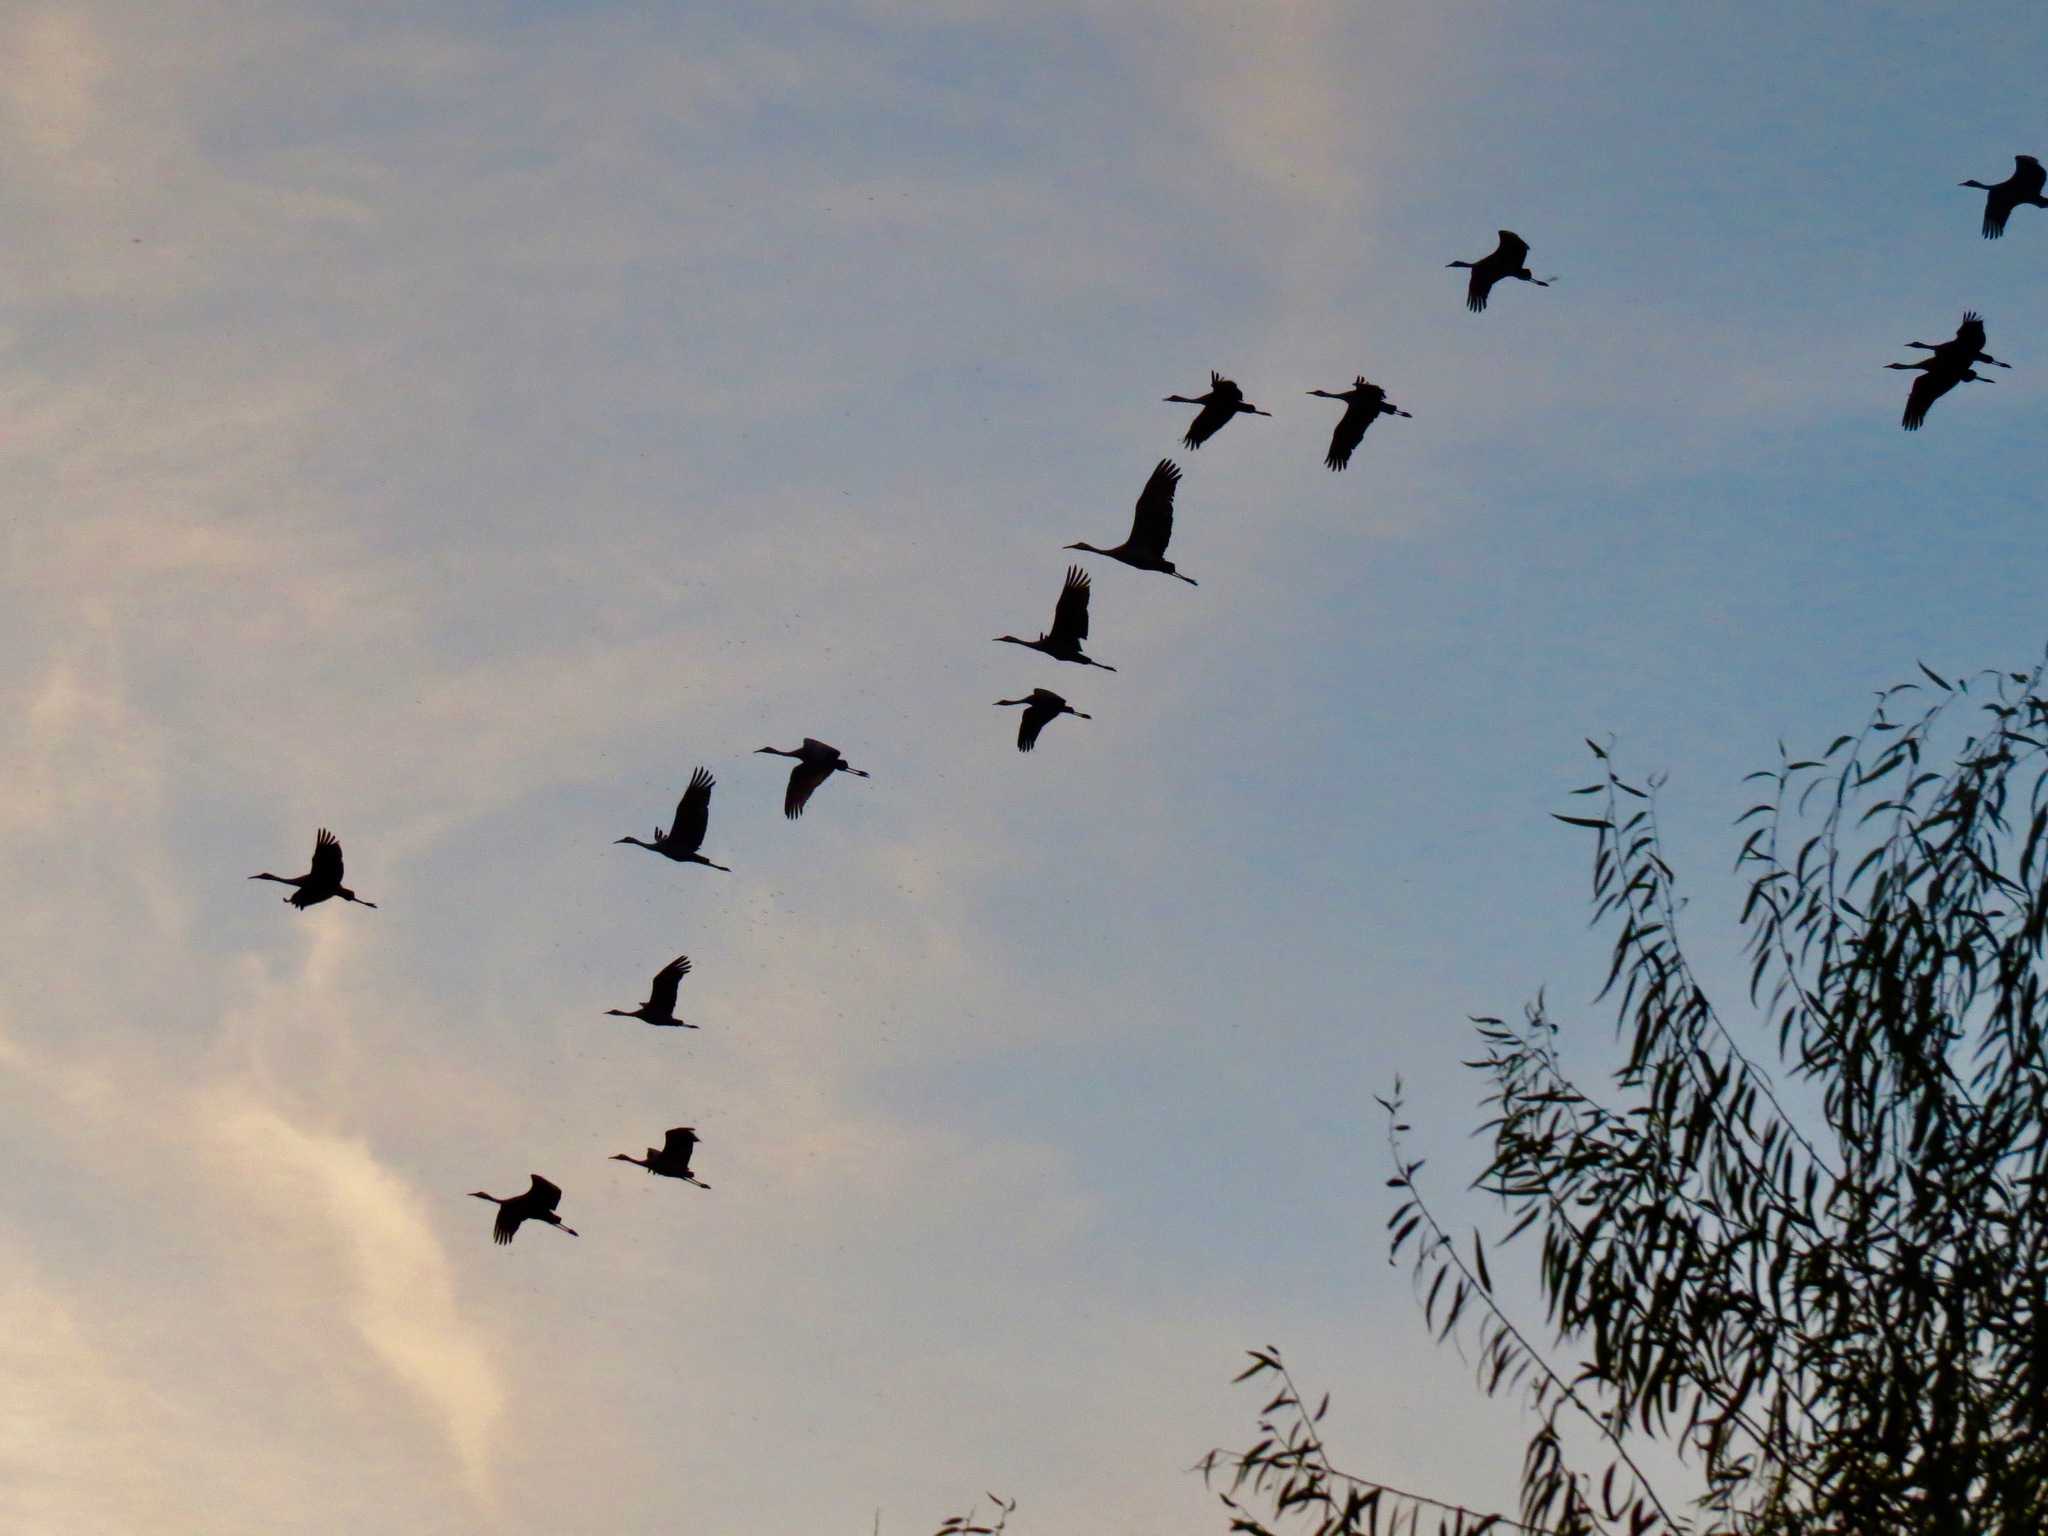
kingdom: Animalia
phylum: Chordata
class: Aves
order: Gruiformes
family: Gruidae
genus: Grus
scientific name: Grus canadensis
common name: Sandhill crane
